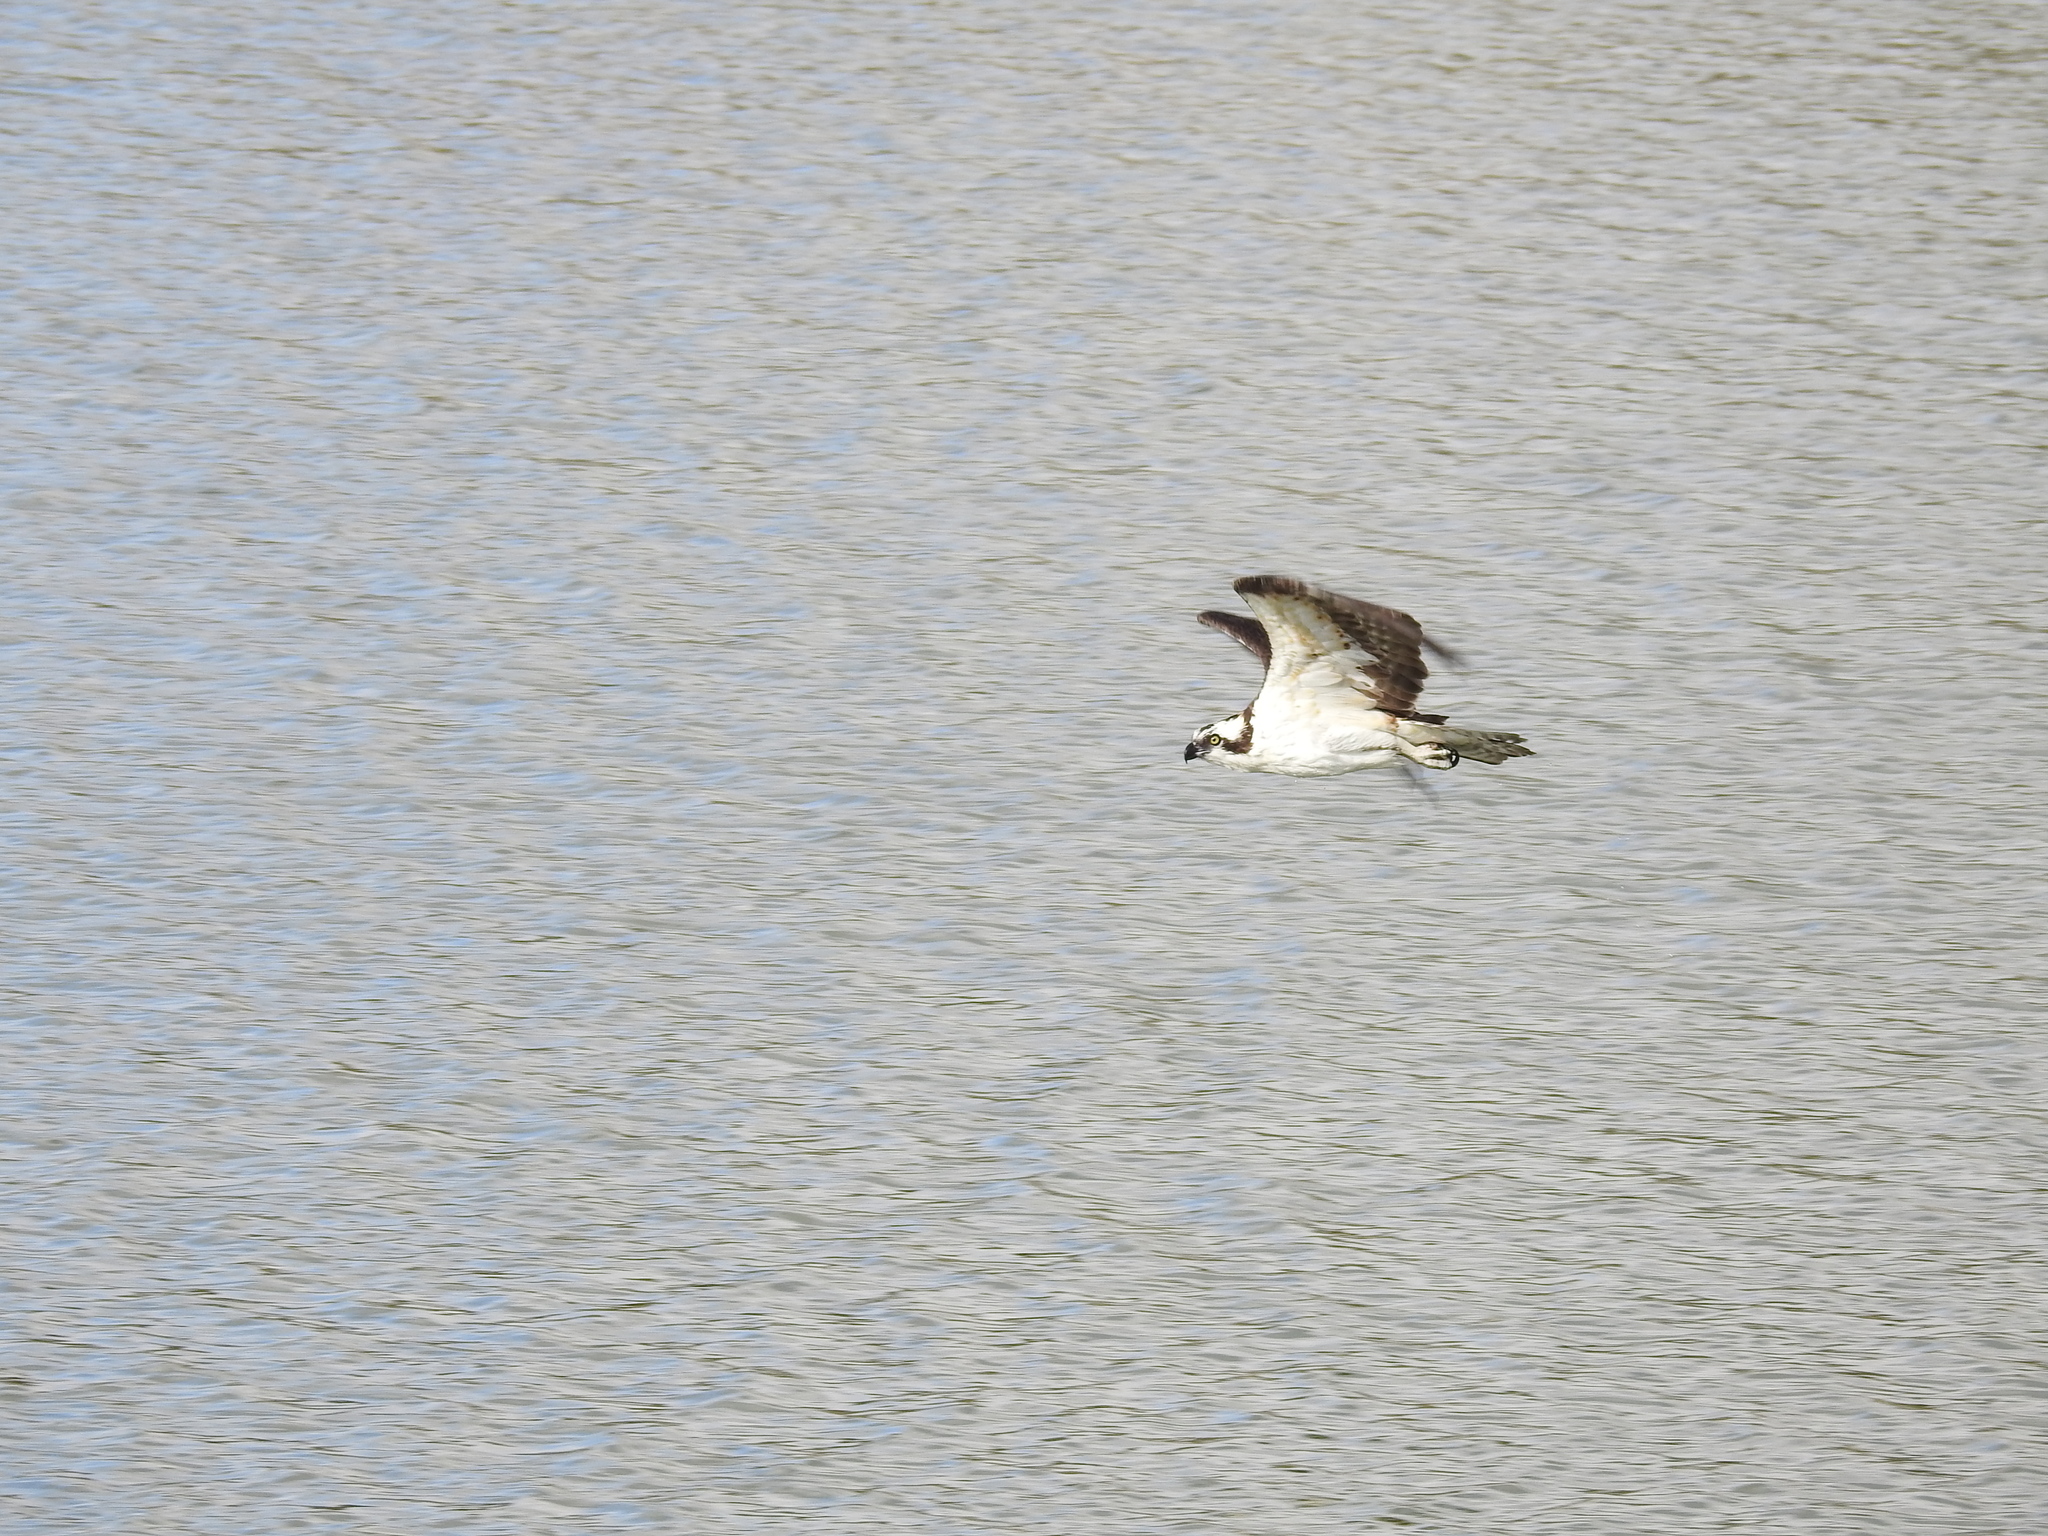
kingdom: Animalia
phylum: Chordata
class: Aves
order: Accipitriformes
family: Pandionidae
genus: Pandion
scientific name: Pandion haliaetus
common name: Osprey
